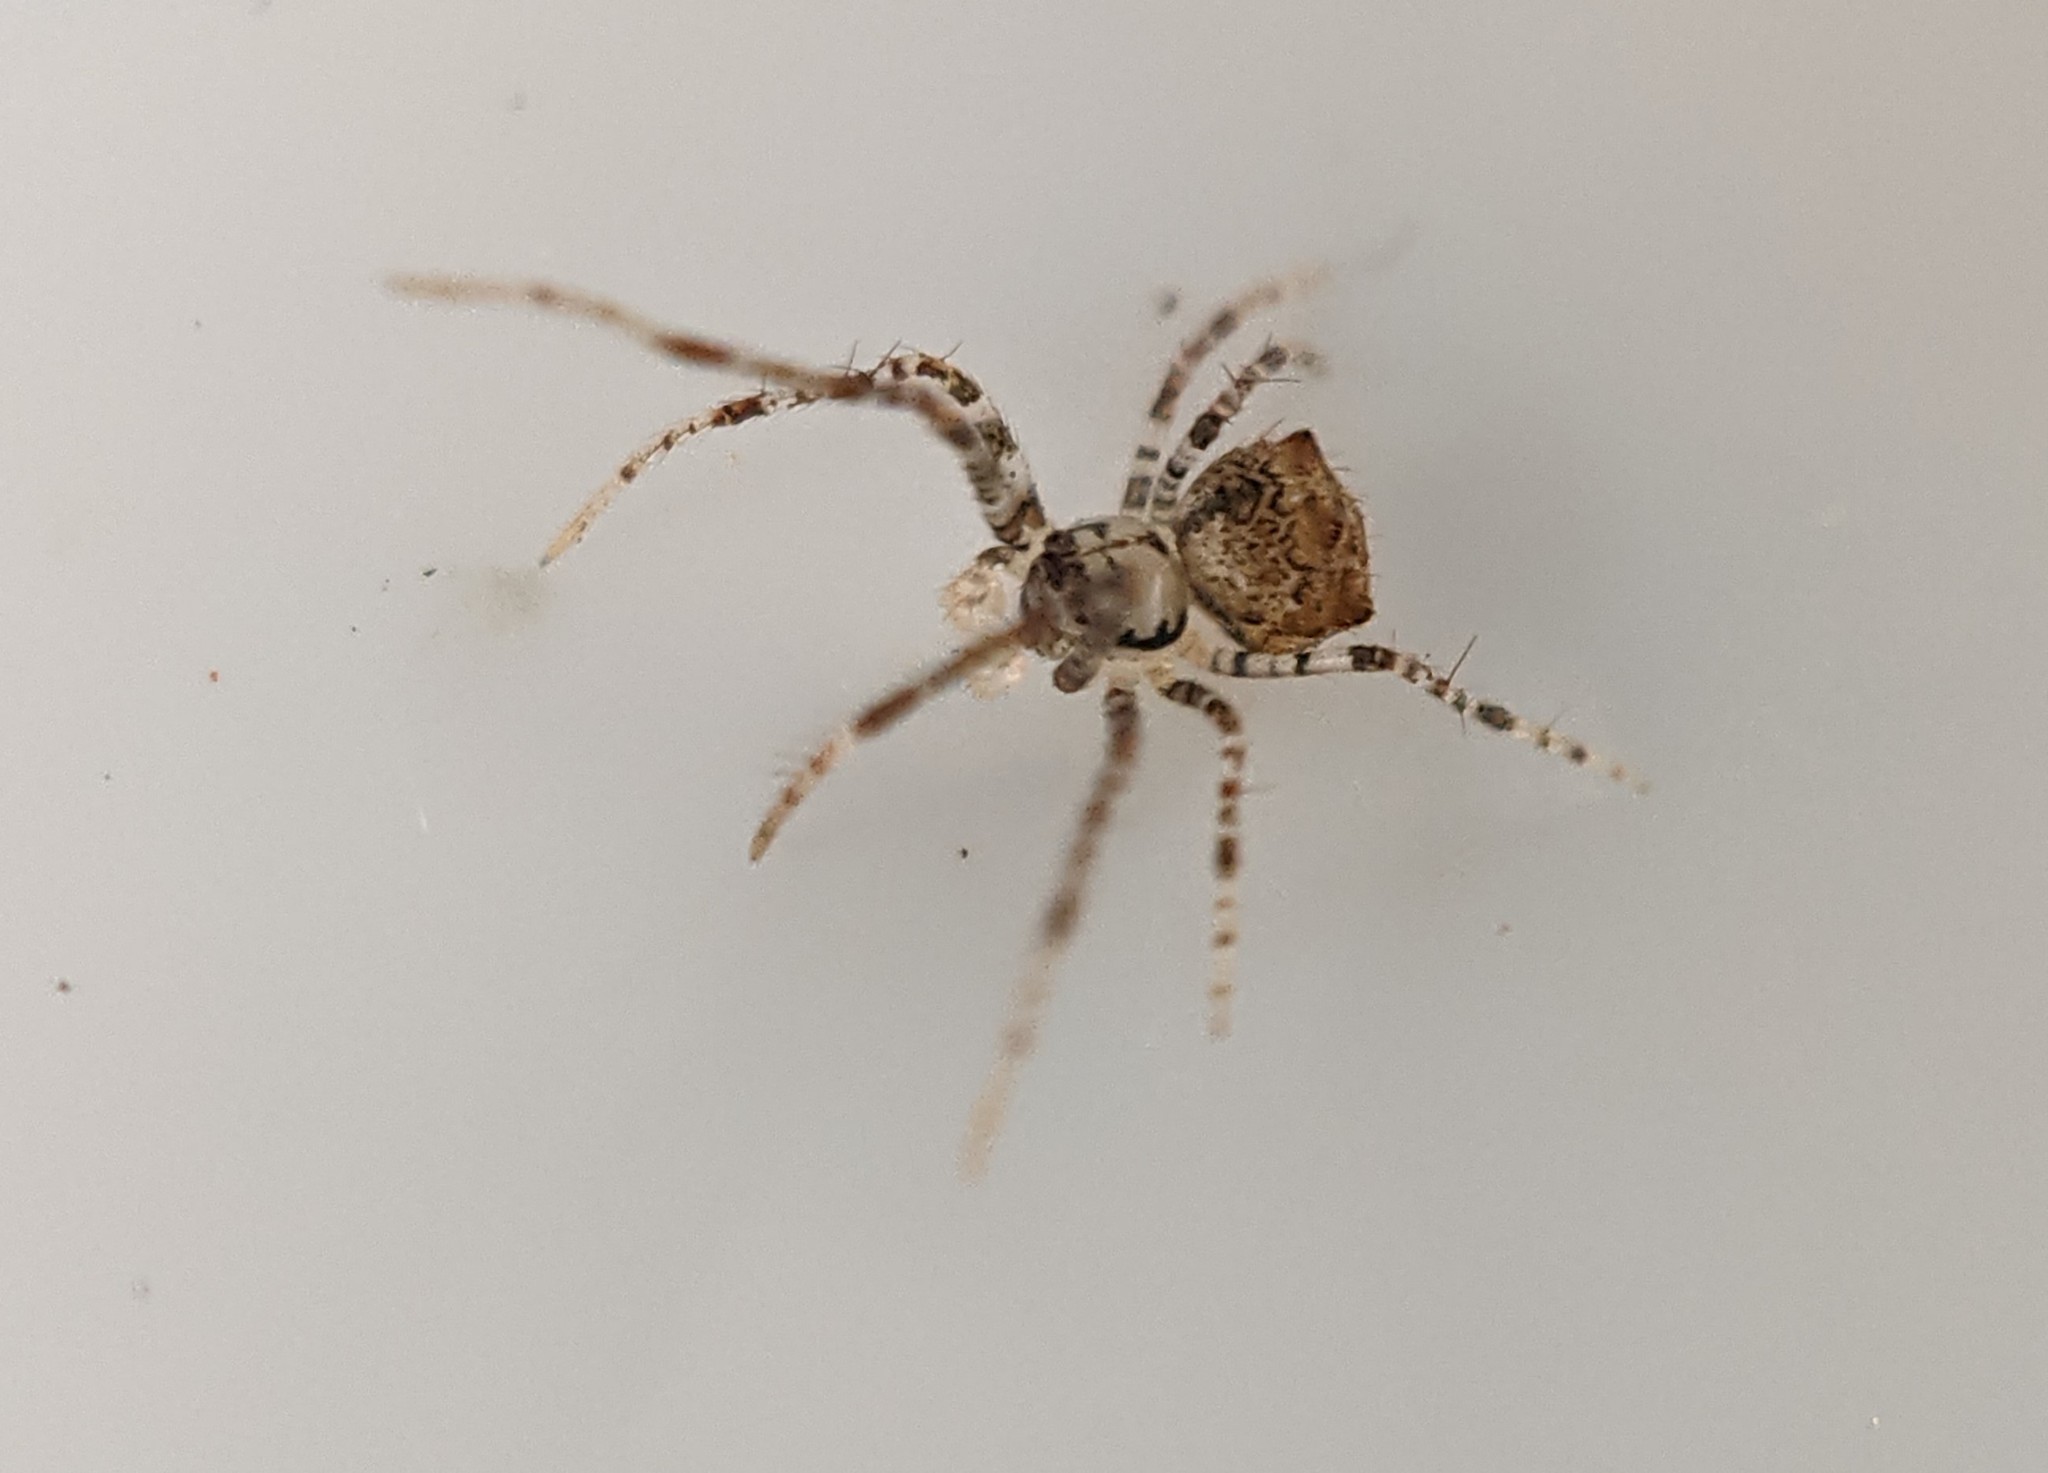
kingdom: Animalia
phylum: Arthropoda
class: Arachnida
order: Araneae
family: Mimetidae
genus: Ero
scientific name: Ero aphana
